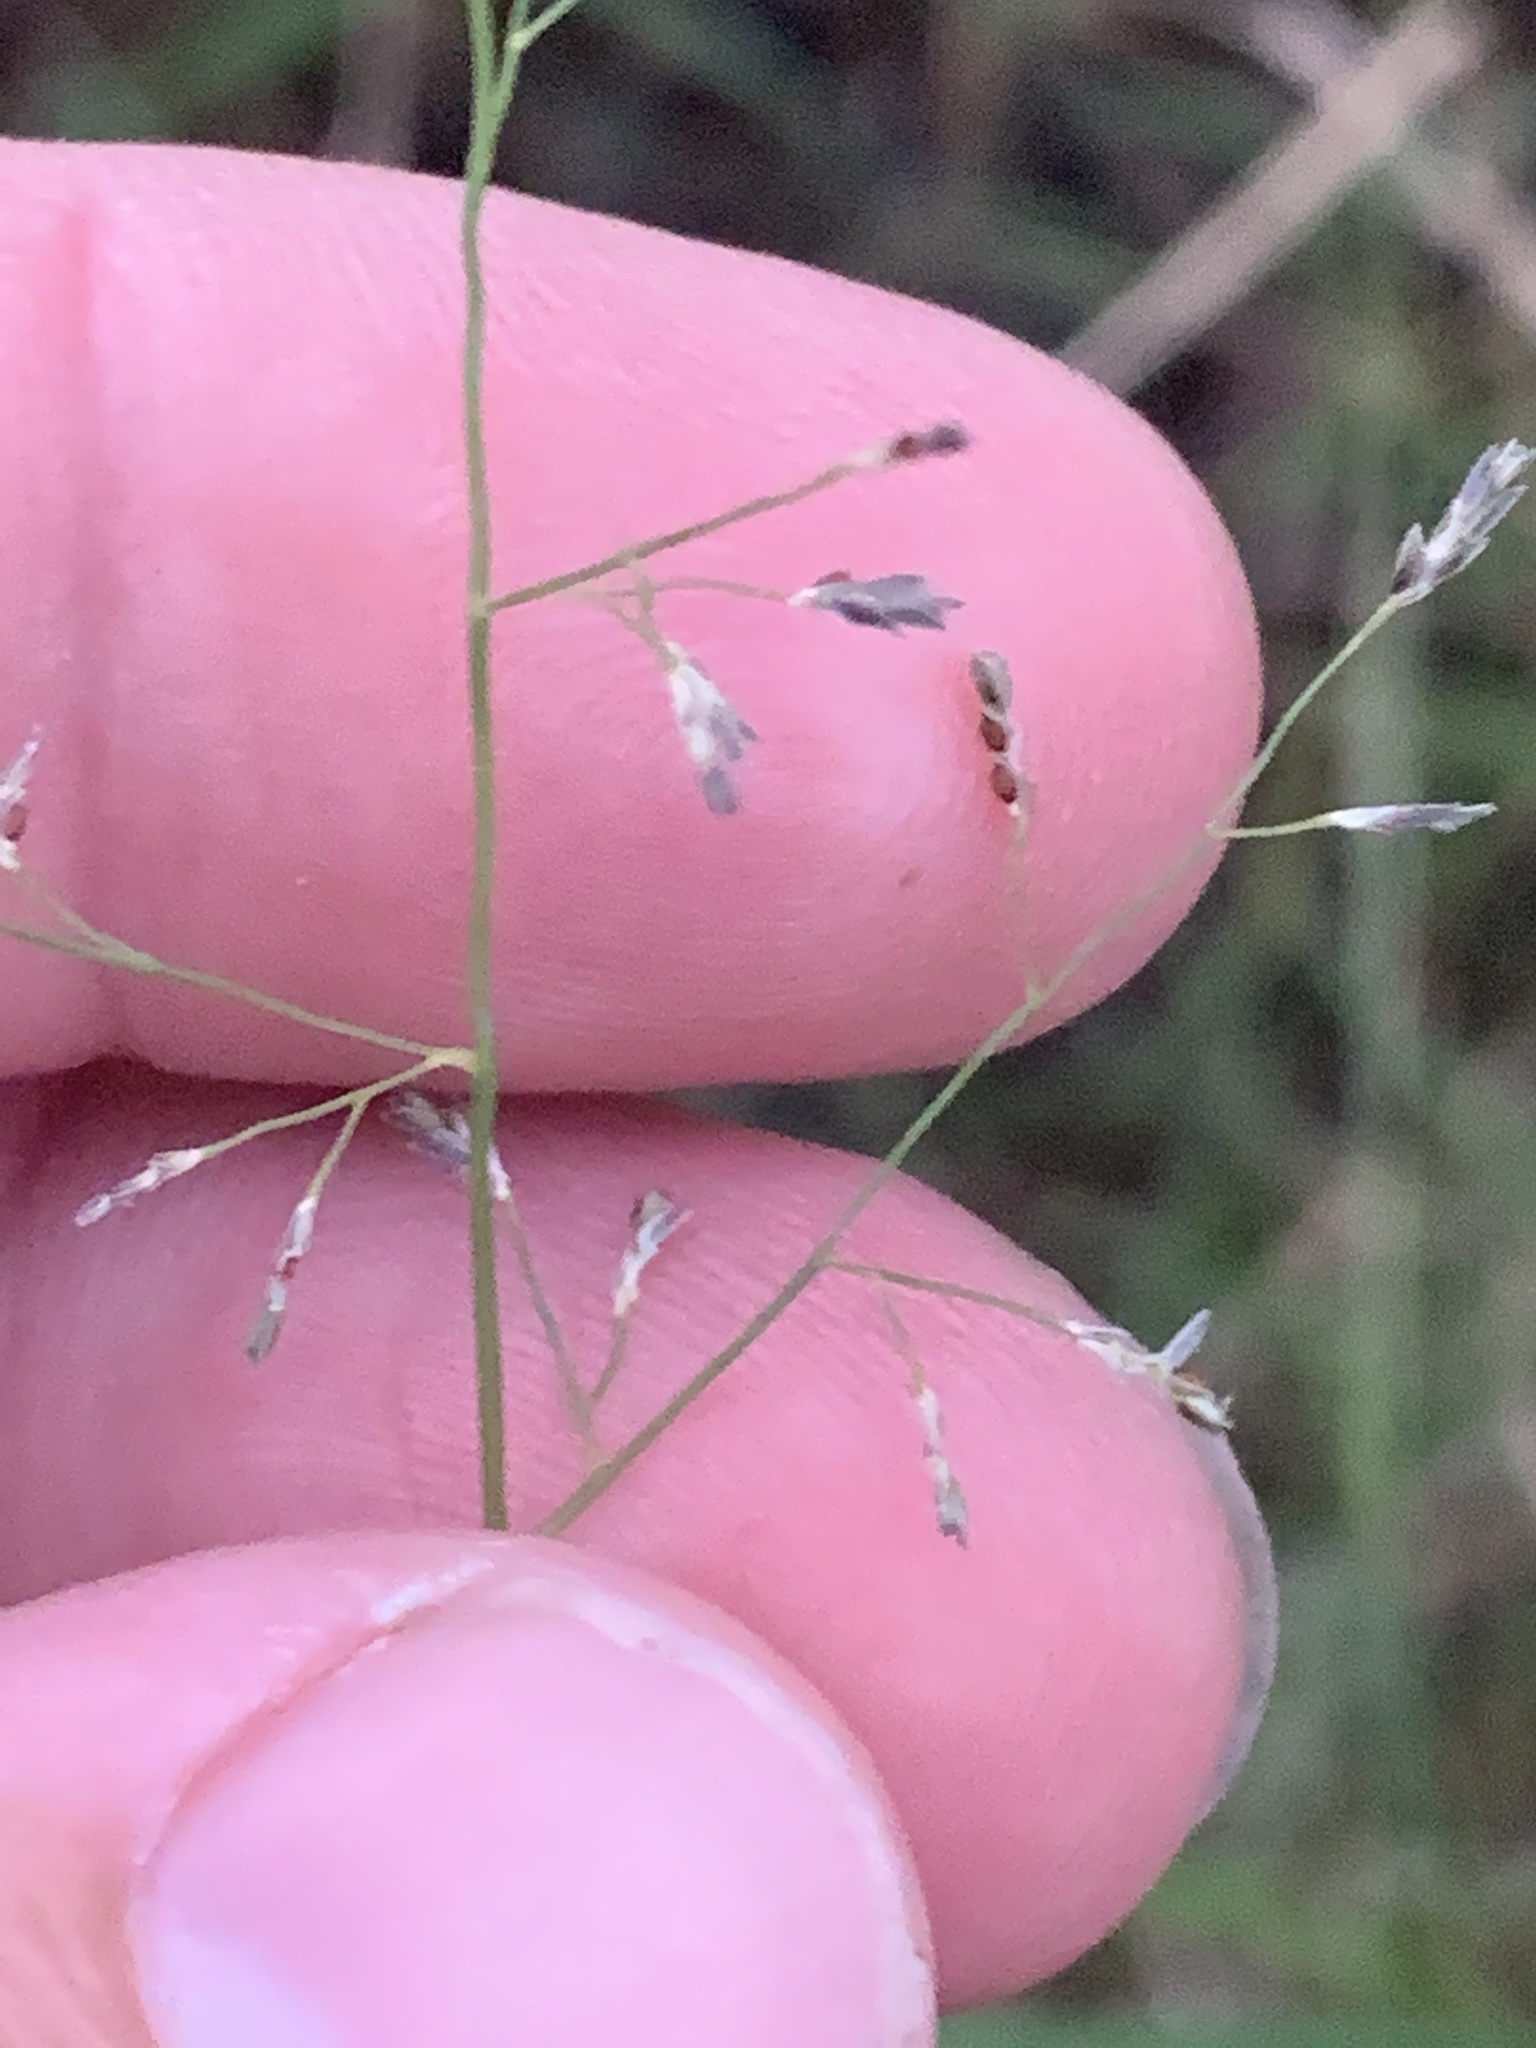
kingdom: Plantae
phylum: Tracheophyta
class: Liliopsida
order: Poales
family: Poaceae
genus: Eragrostis
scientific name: Eragrostis
